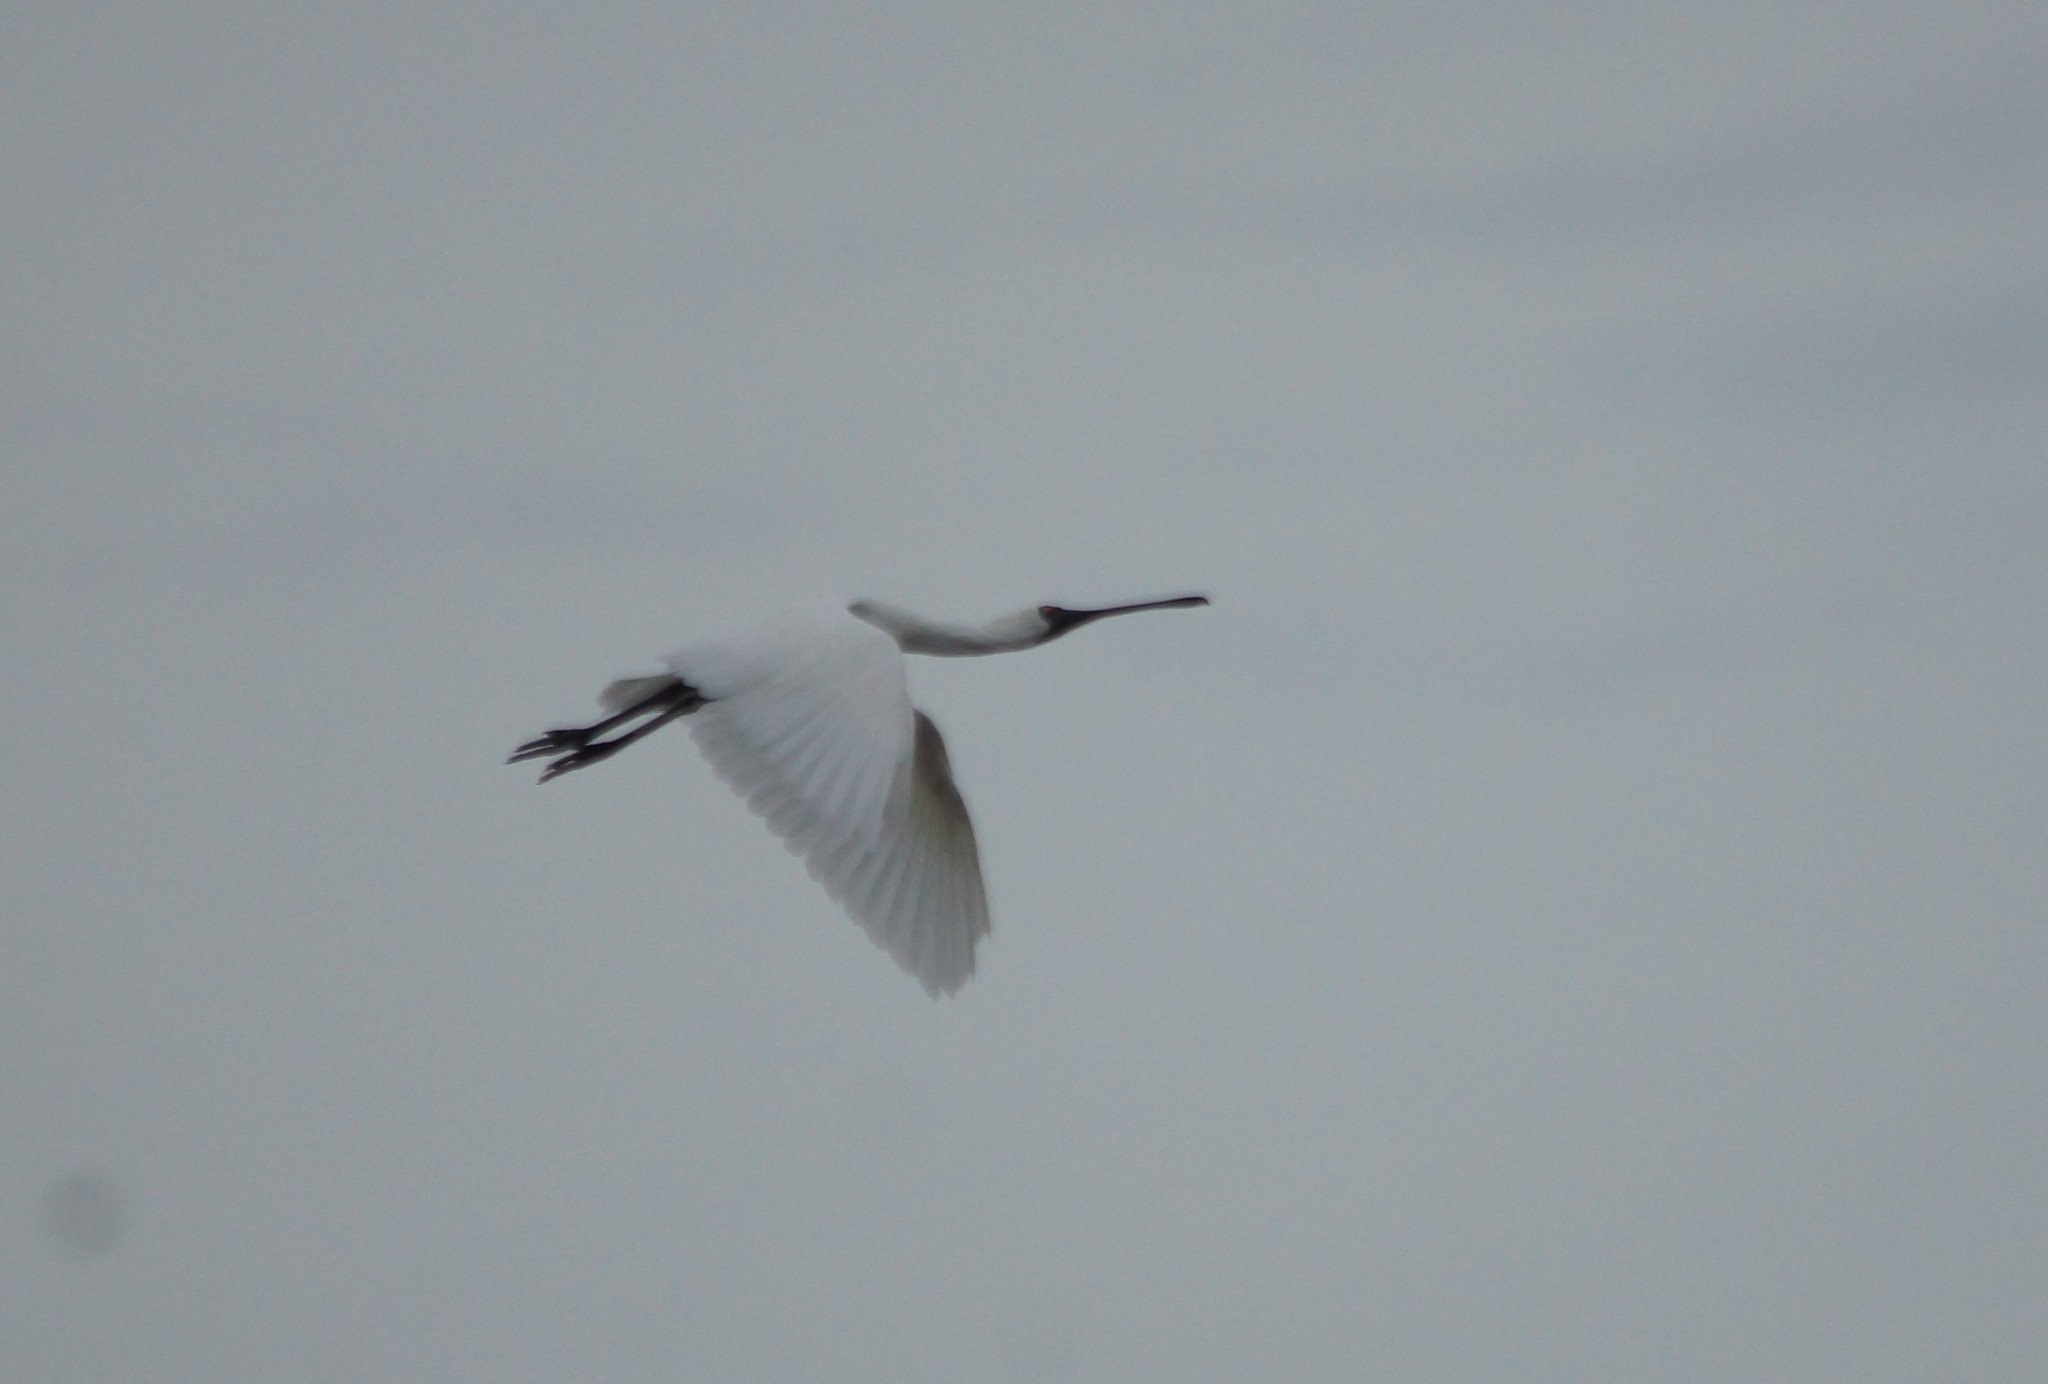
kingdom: Animalia
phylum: Chordata
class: Aves
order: Pelecaniformes
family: Threskiornithidae
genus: Platalea
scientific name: Platalea regia
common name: Royal spoonbill
